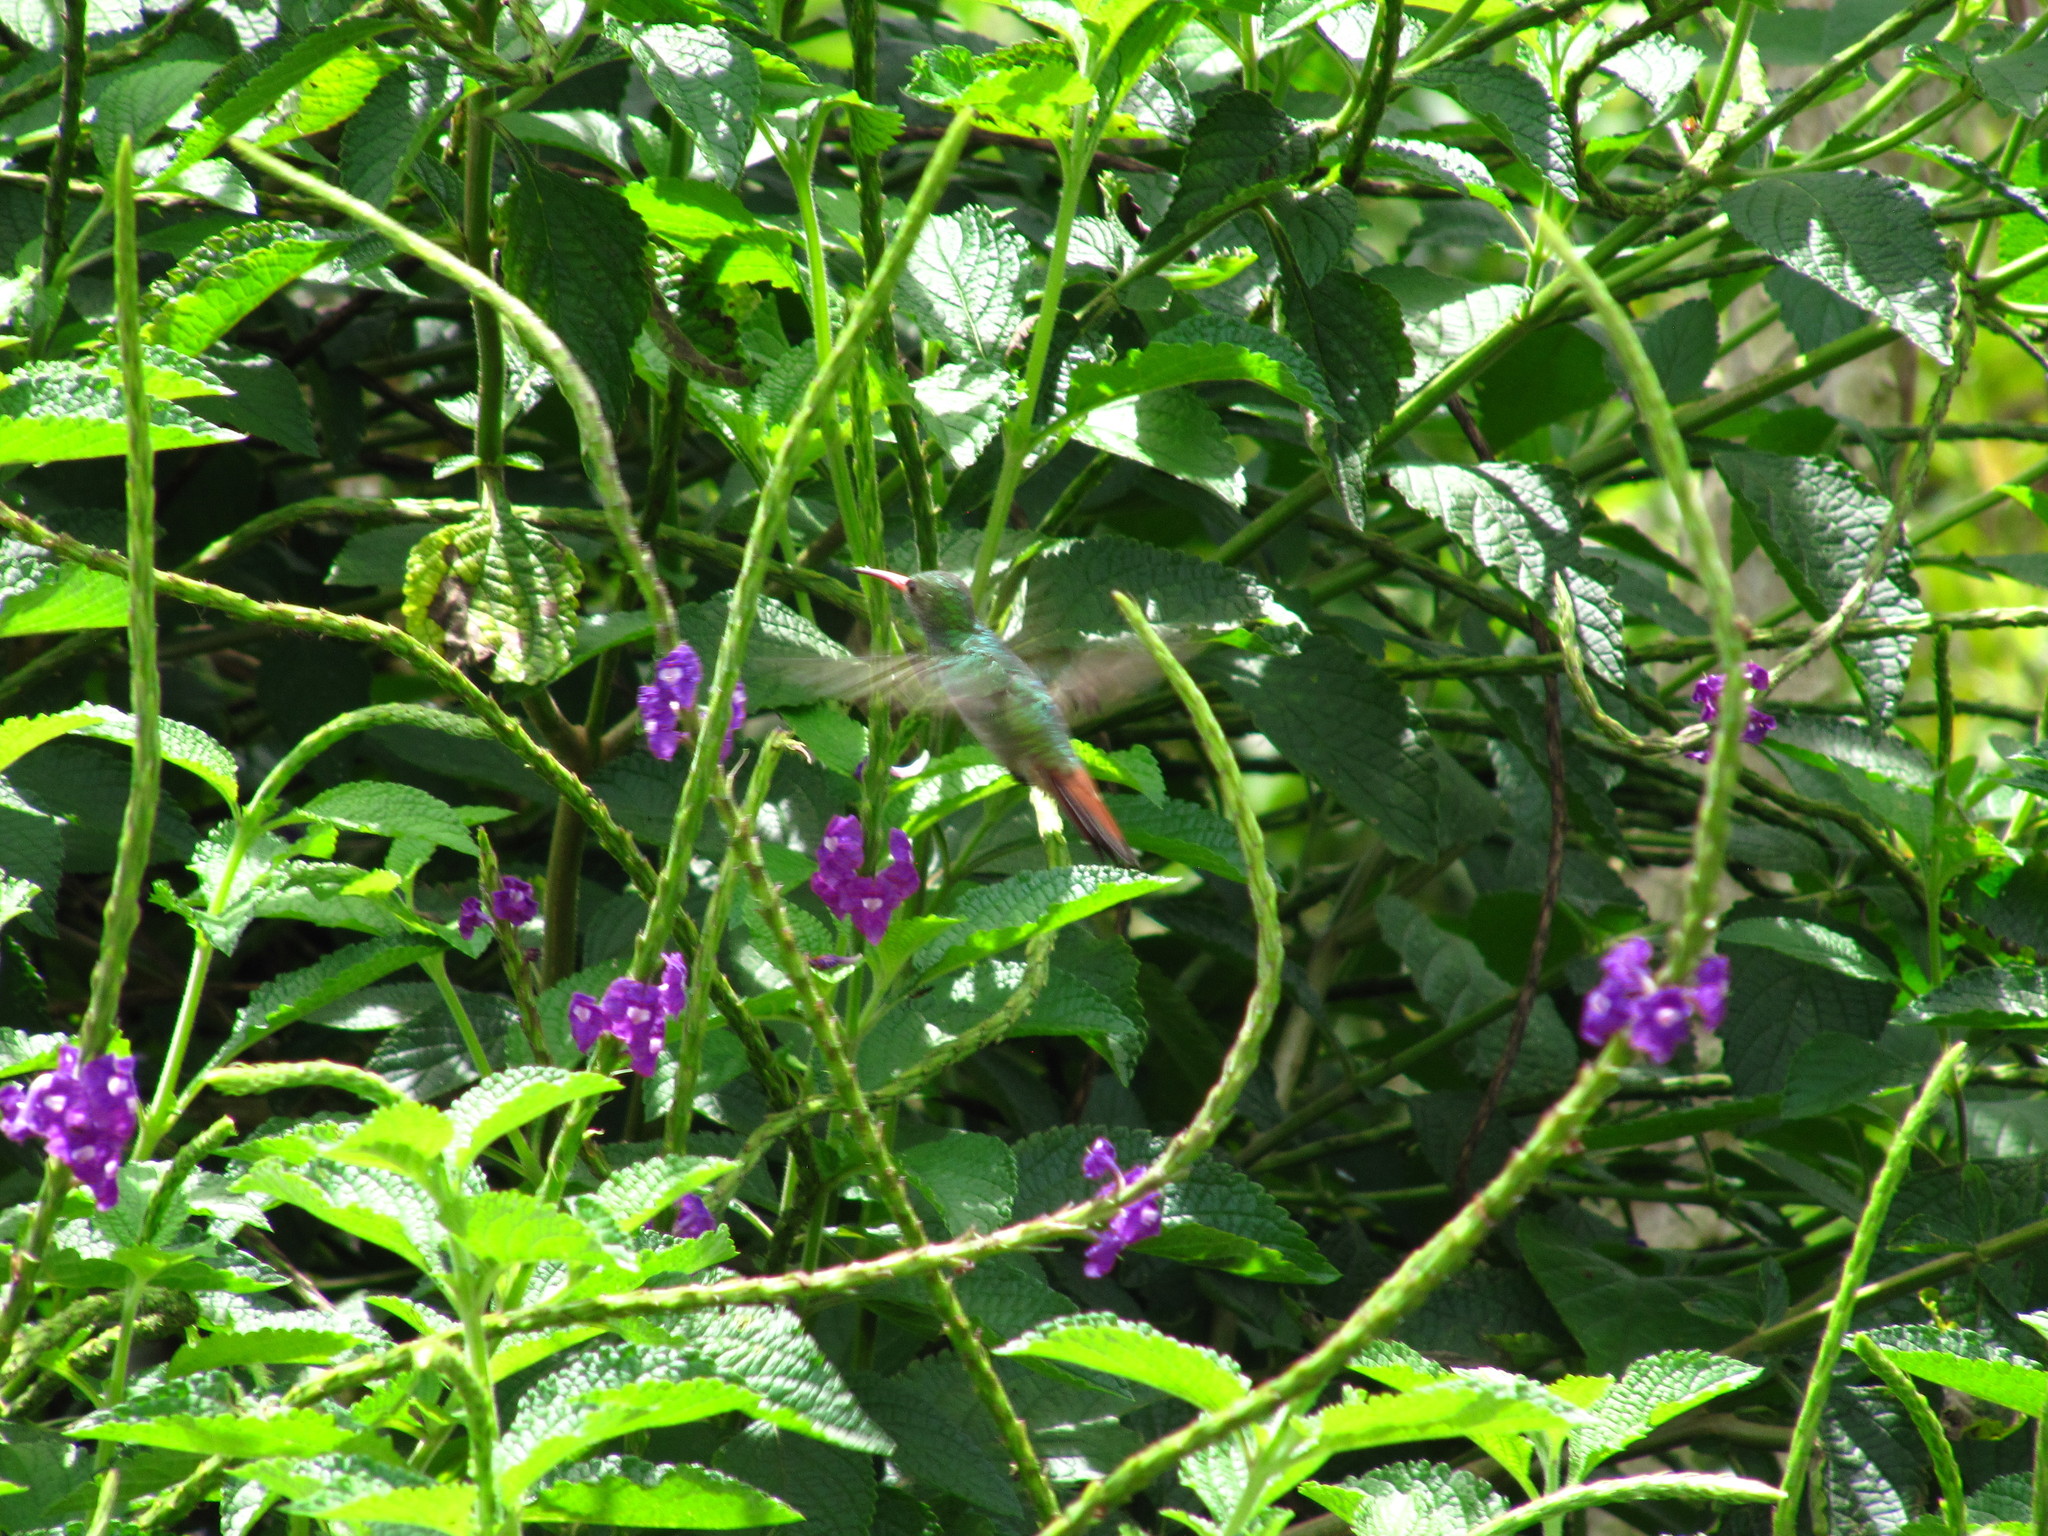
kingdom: Animalia
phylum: Chordata
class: Aves
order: Apodiformes
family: Trochilidae
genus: Amazilia
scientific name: Amazilia tzacatl
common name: Rufous-tailed hummingbird
